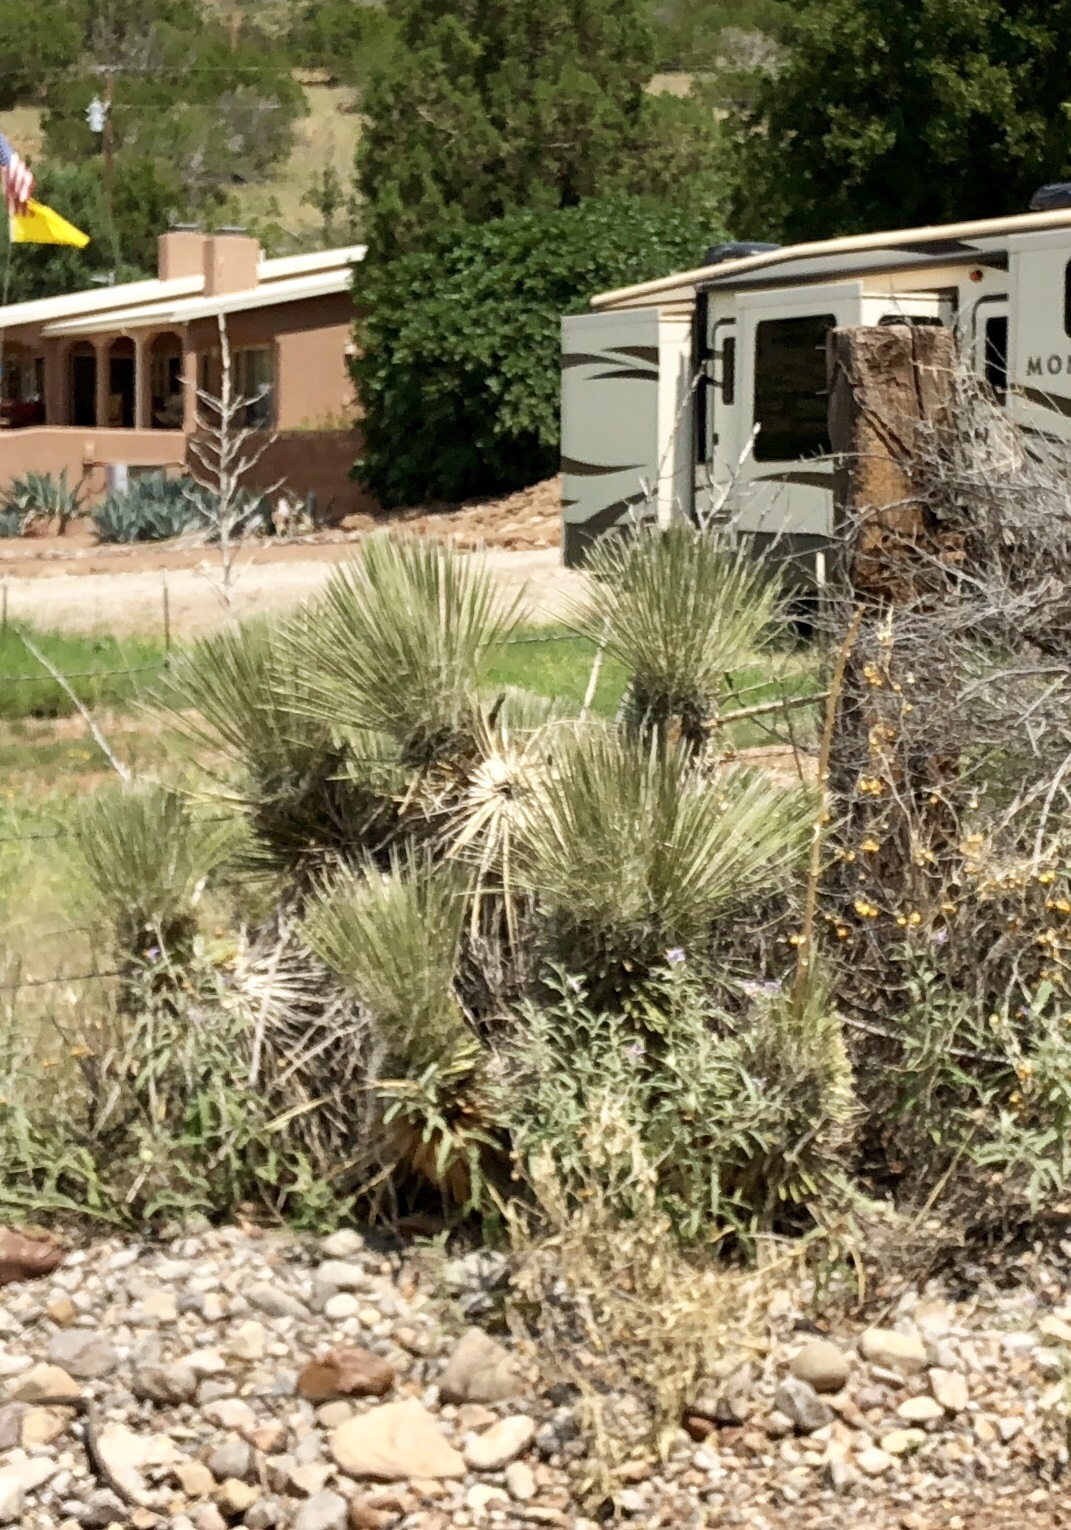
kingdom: Plantae
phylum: Tracheophyta
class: Liliopsida
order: Asparagales
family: Asparagaceae
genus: Yucca
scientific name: Yucca elata
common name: Palmella
